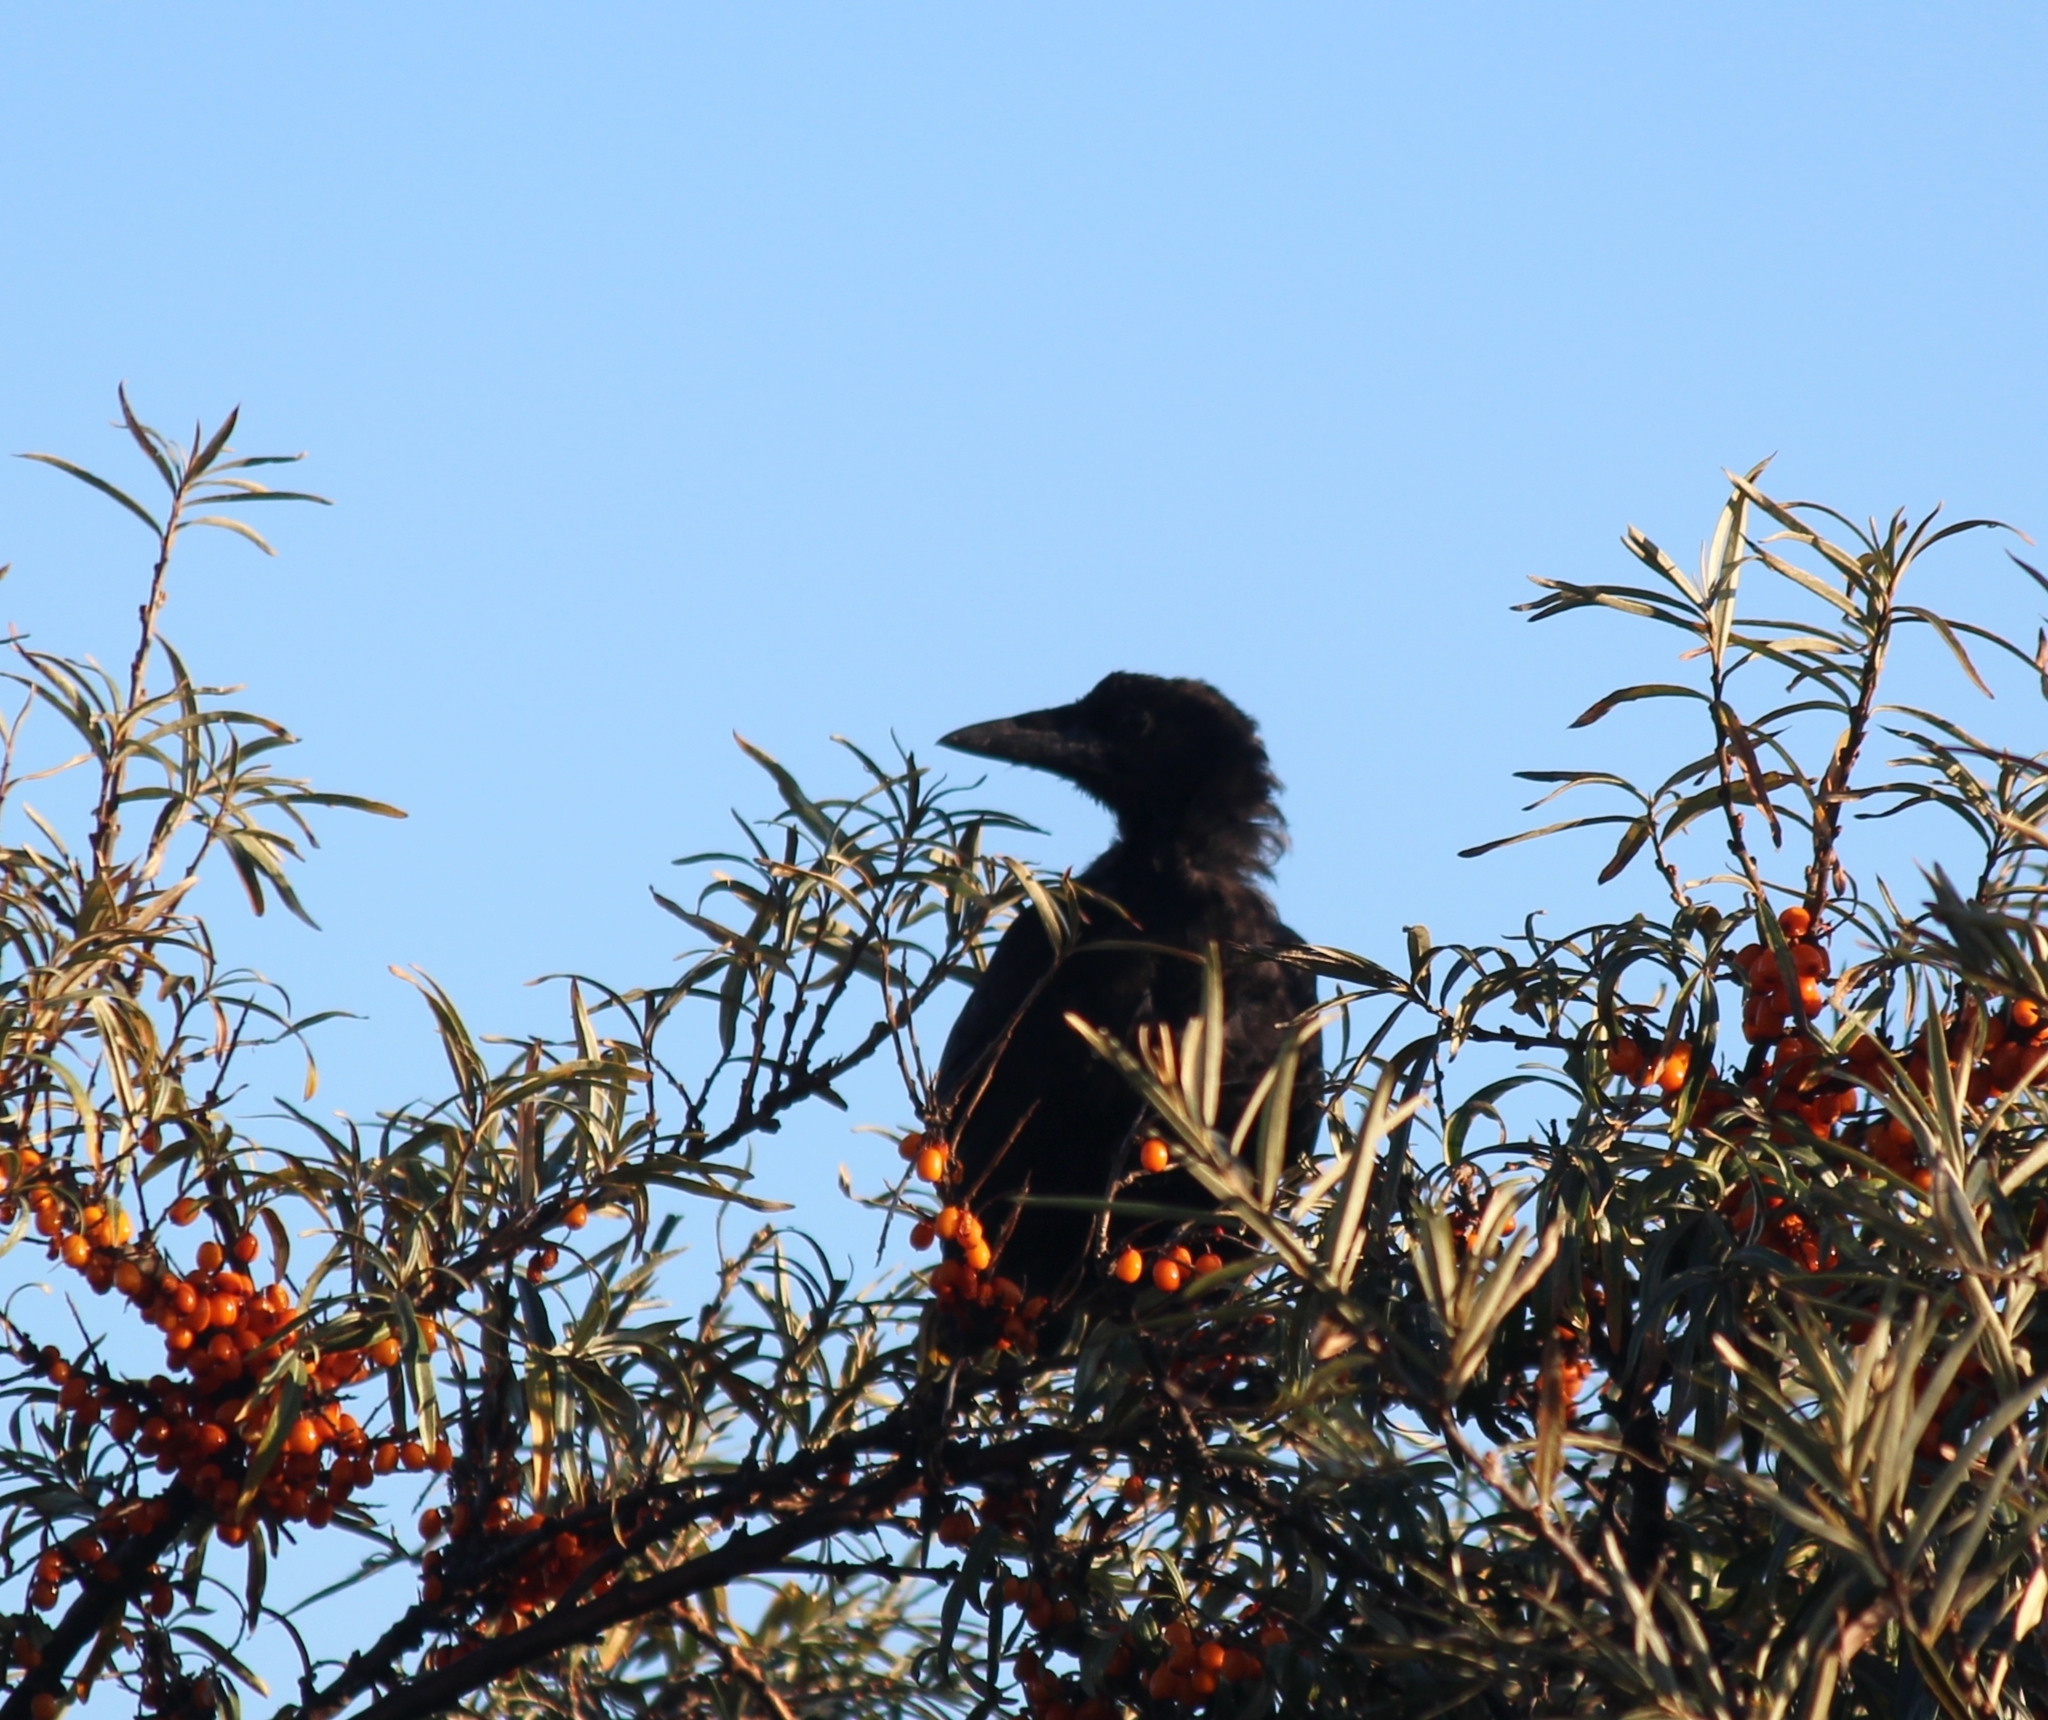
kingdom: Animalia
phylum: Chordata
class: Aves
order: Passeriformes
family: Corvidae
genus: Corvus
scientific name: Corvus corone
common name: Carrion crow
